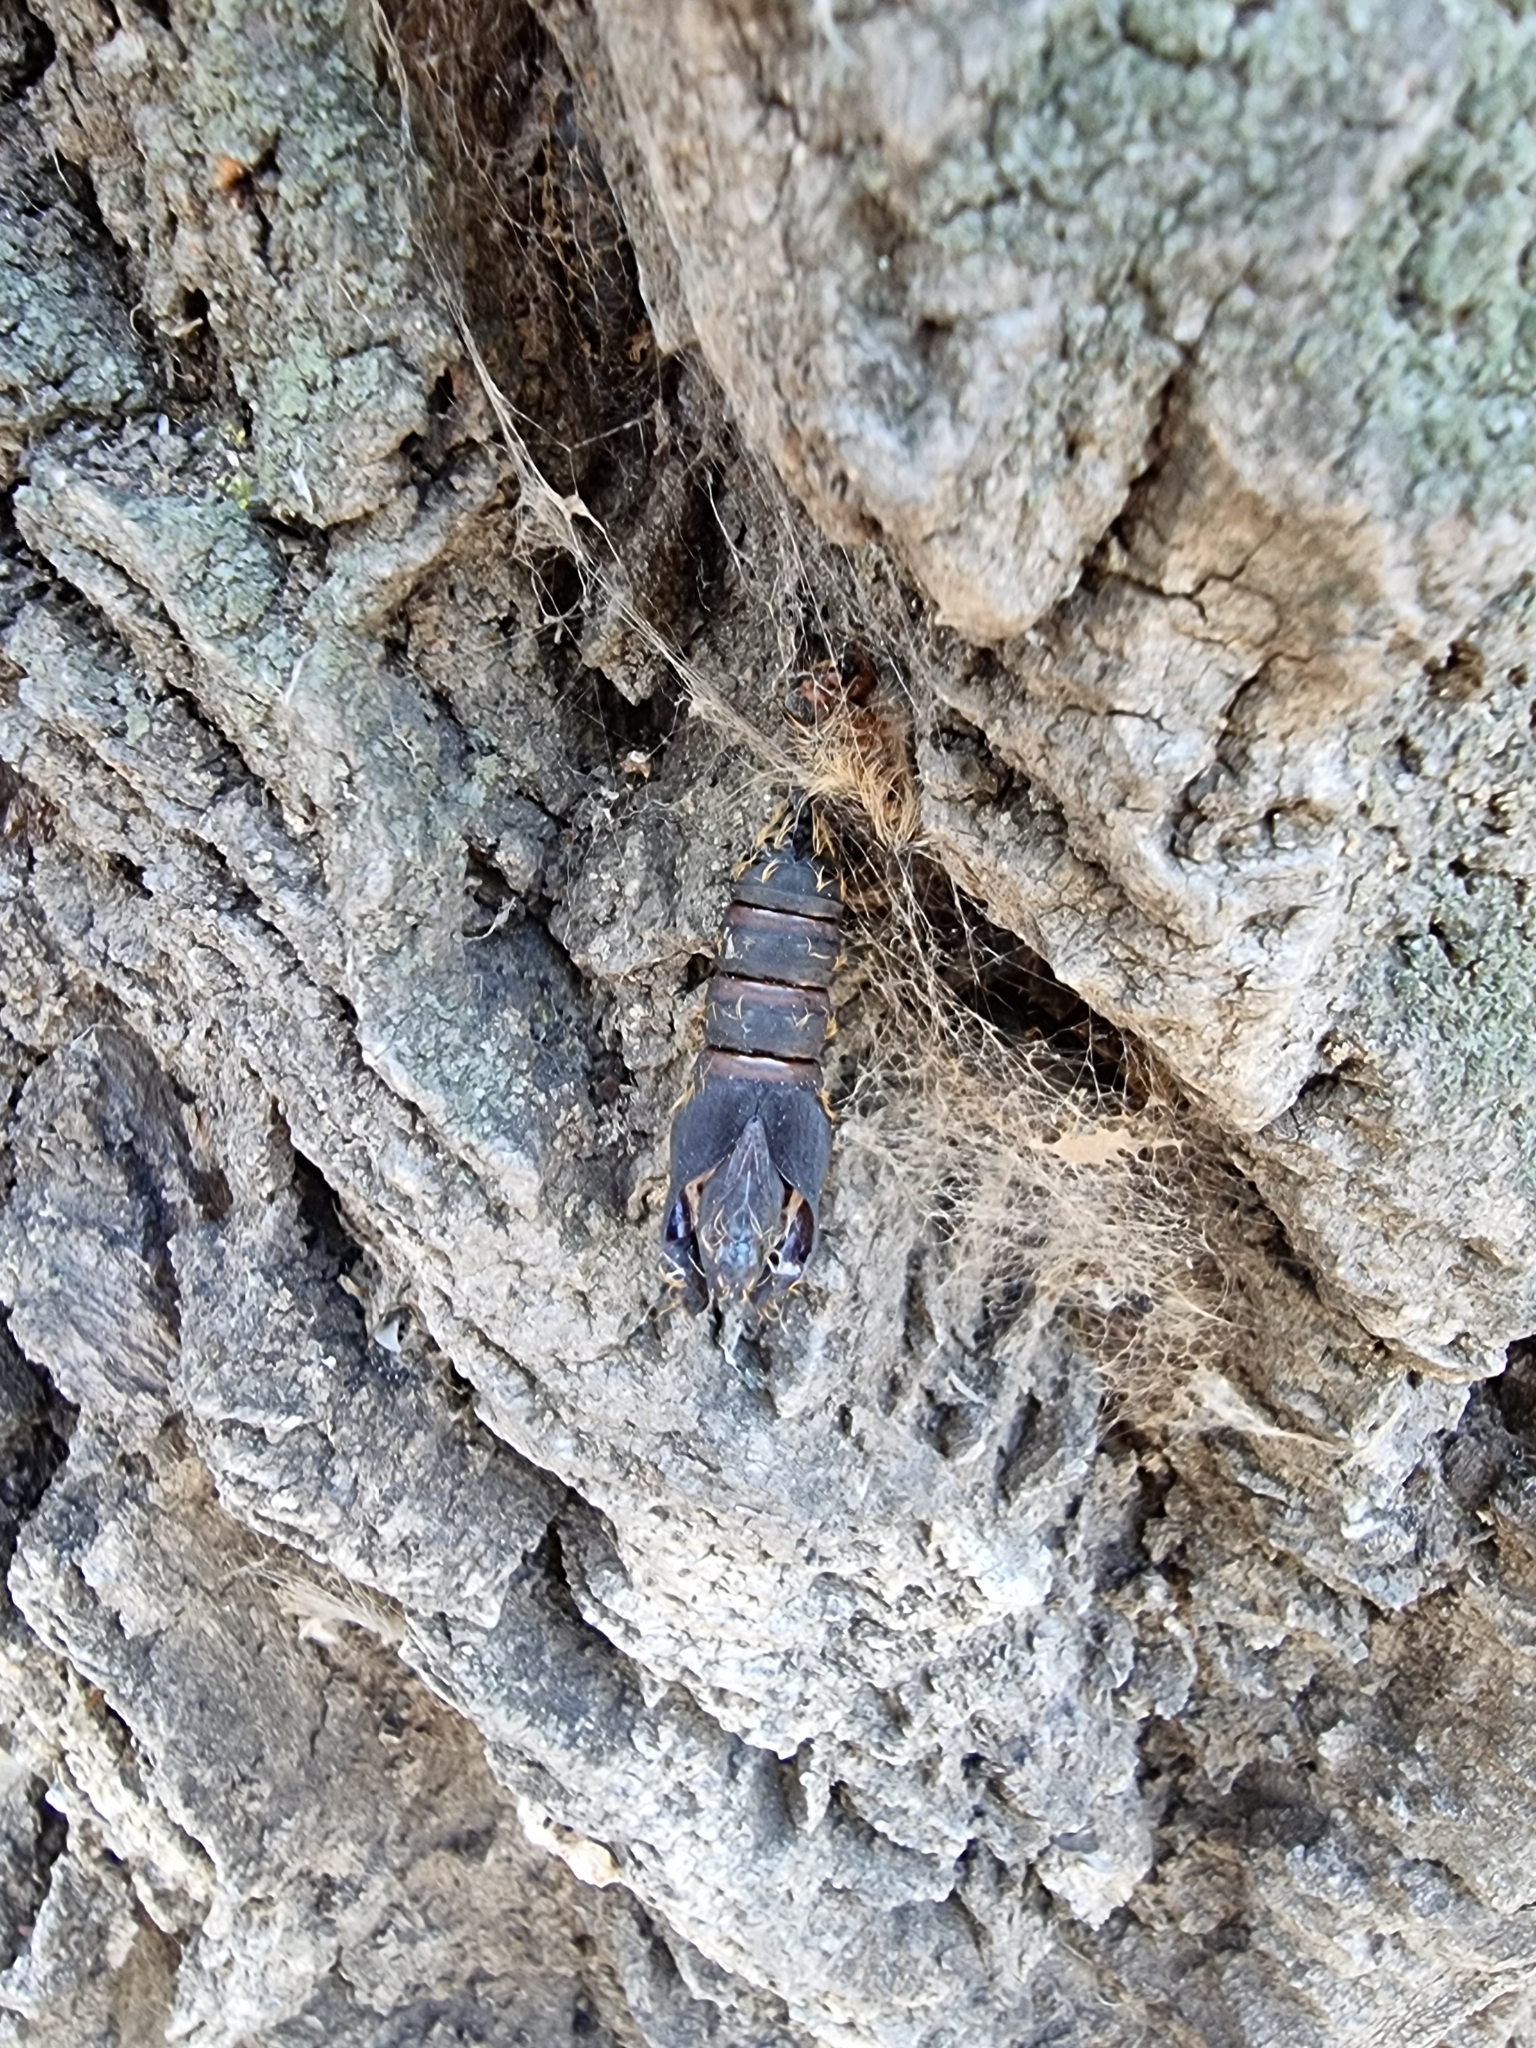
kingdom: Animalia
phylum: Arthropoda
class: Insecta
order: Lepidoptera
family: Erebidae
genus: Lymantria
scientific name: Lymantria dispar
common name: Gypsy moth
